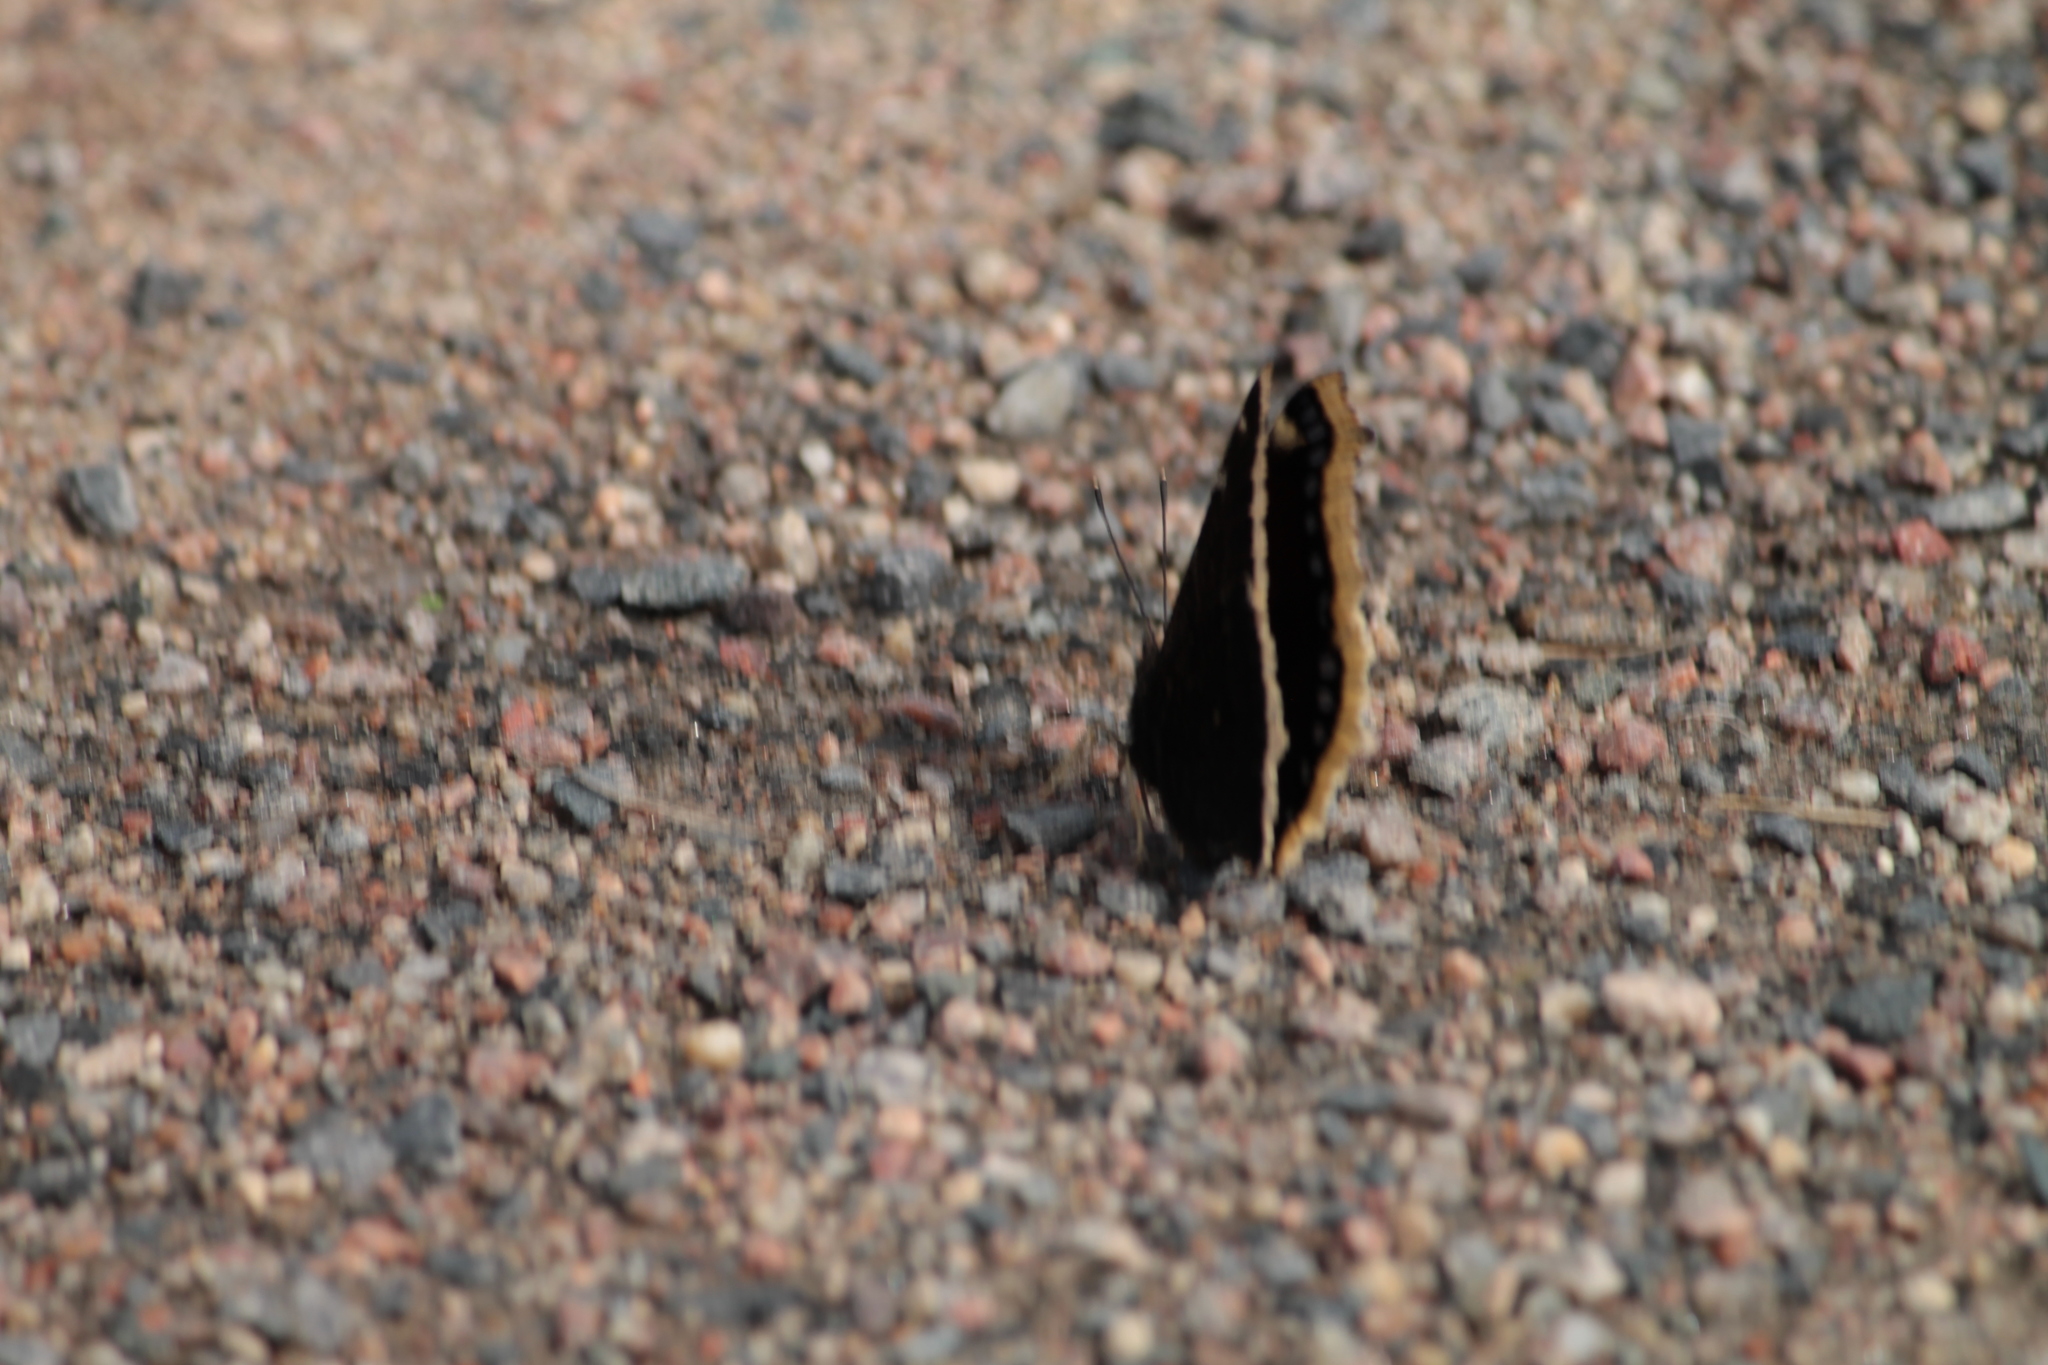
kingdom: Animalia
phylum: Arthropoda
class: Insecta
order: Lepidoptera
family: Nymphalidae
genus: Nymphalis
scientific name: Nymphalis antiopa
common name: Camberwell beauty
